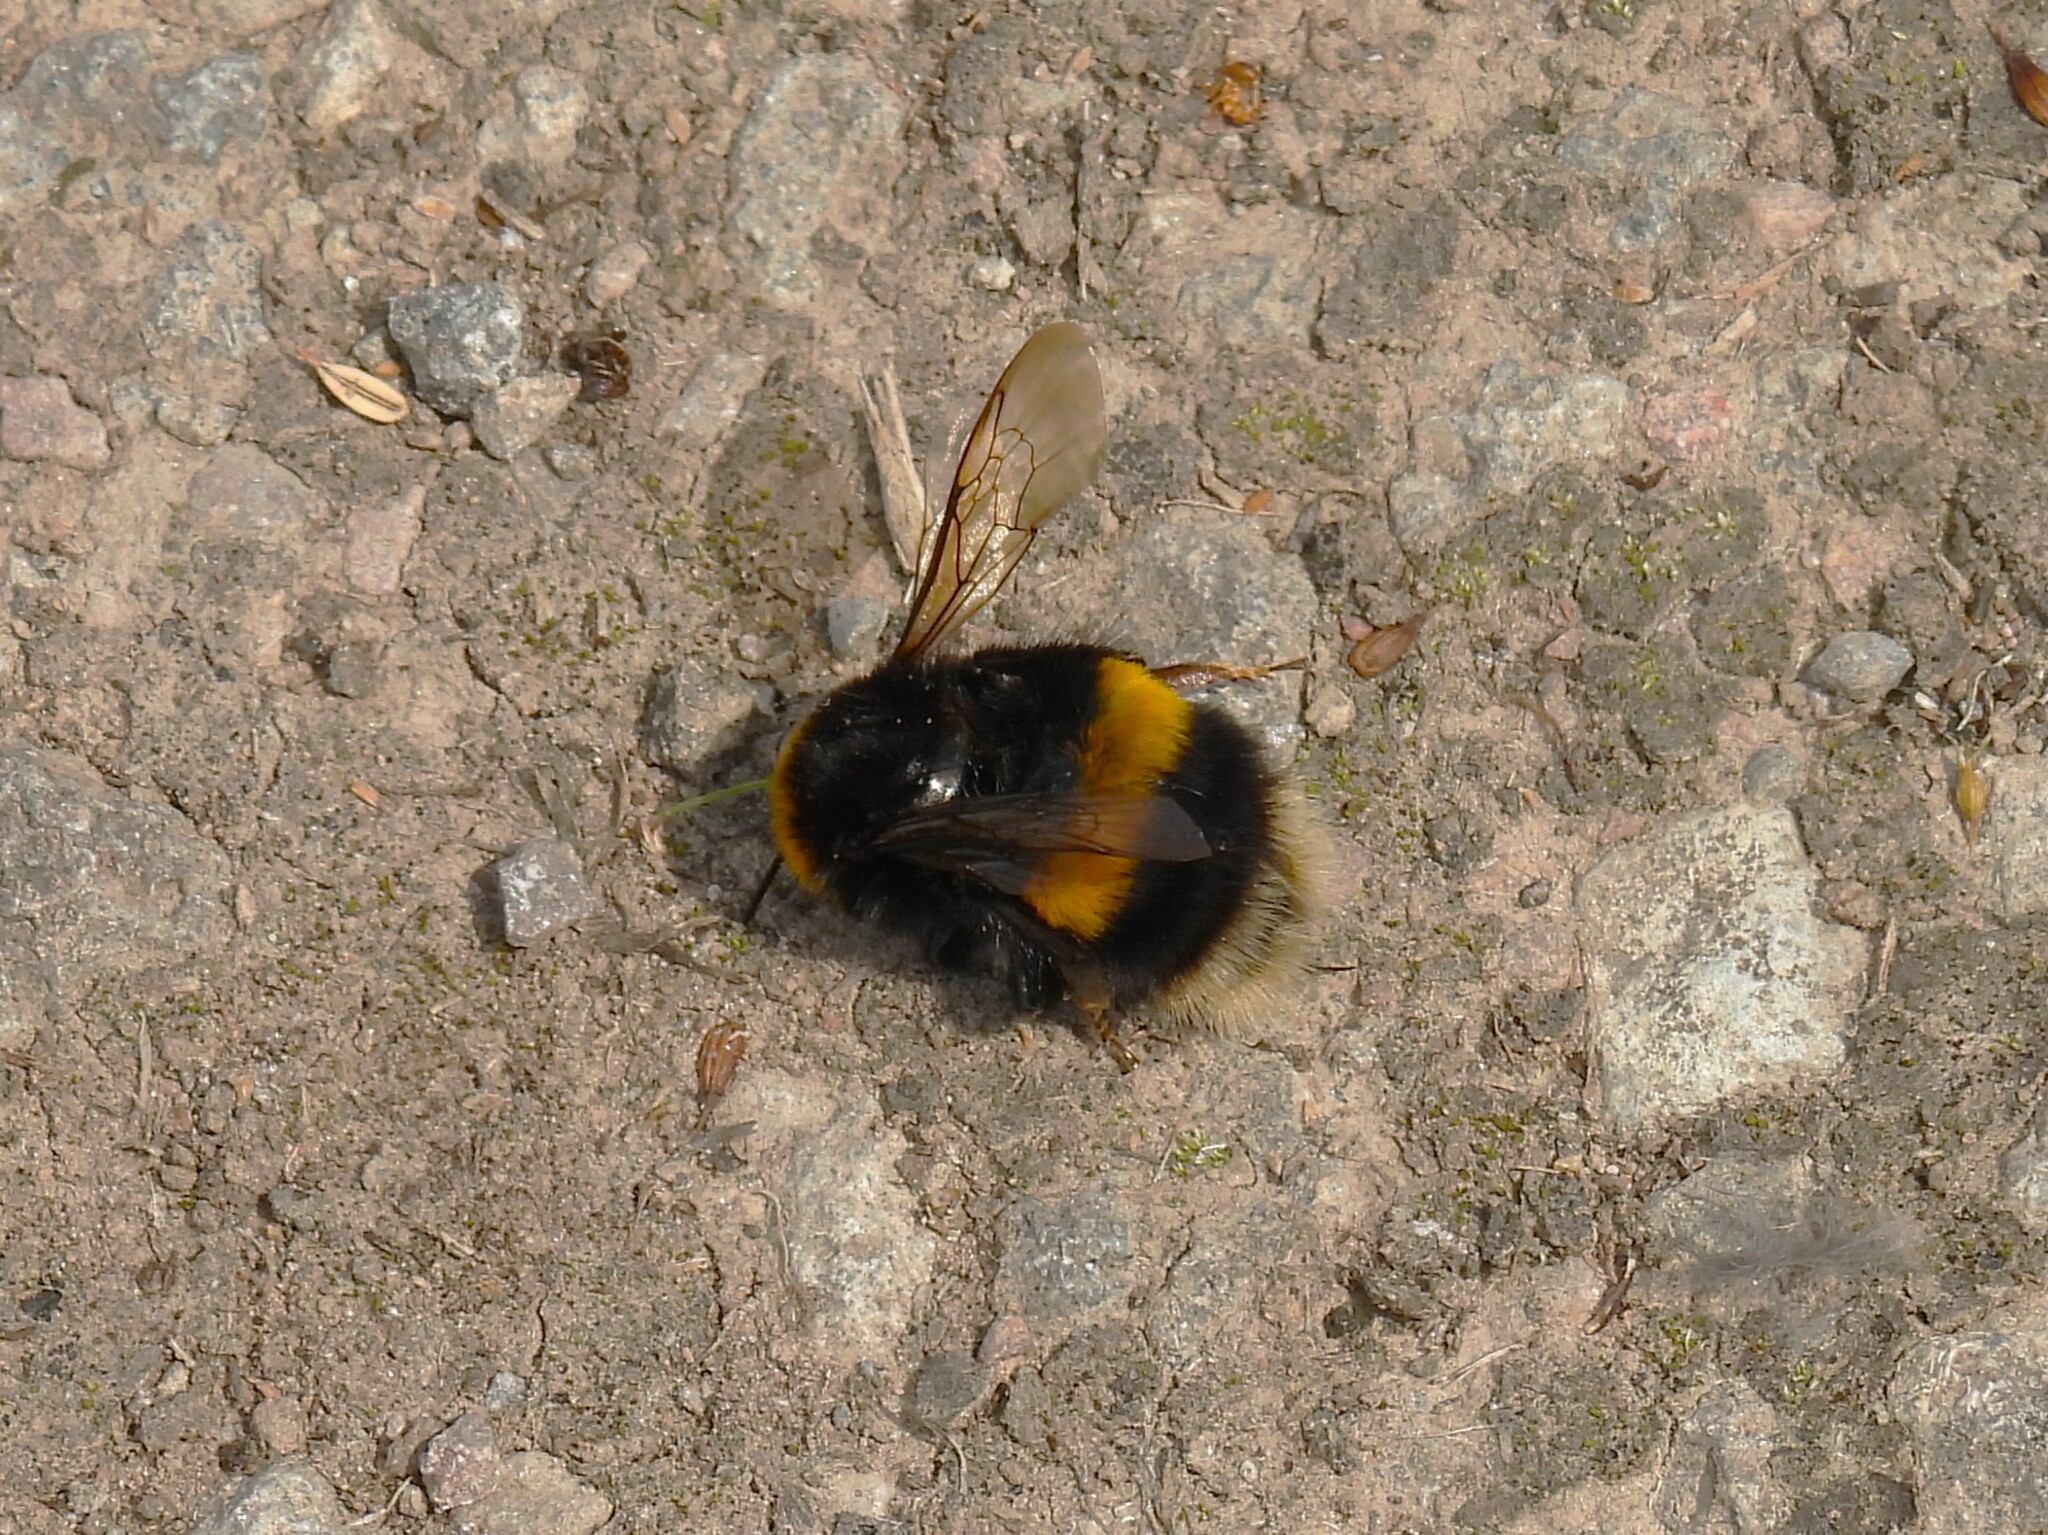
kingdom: Animalia
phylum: Arthropoda
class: Insecta
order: Hymenoptera
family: Apidae
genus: Bombus
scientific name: Bombus terrestris
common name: Buff-tailed bumblebee
